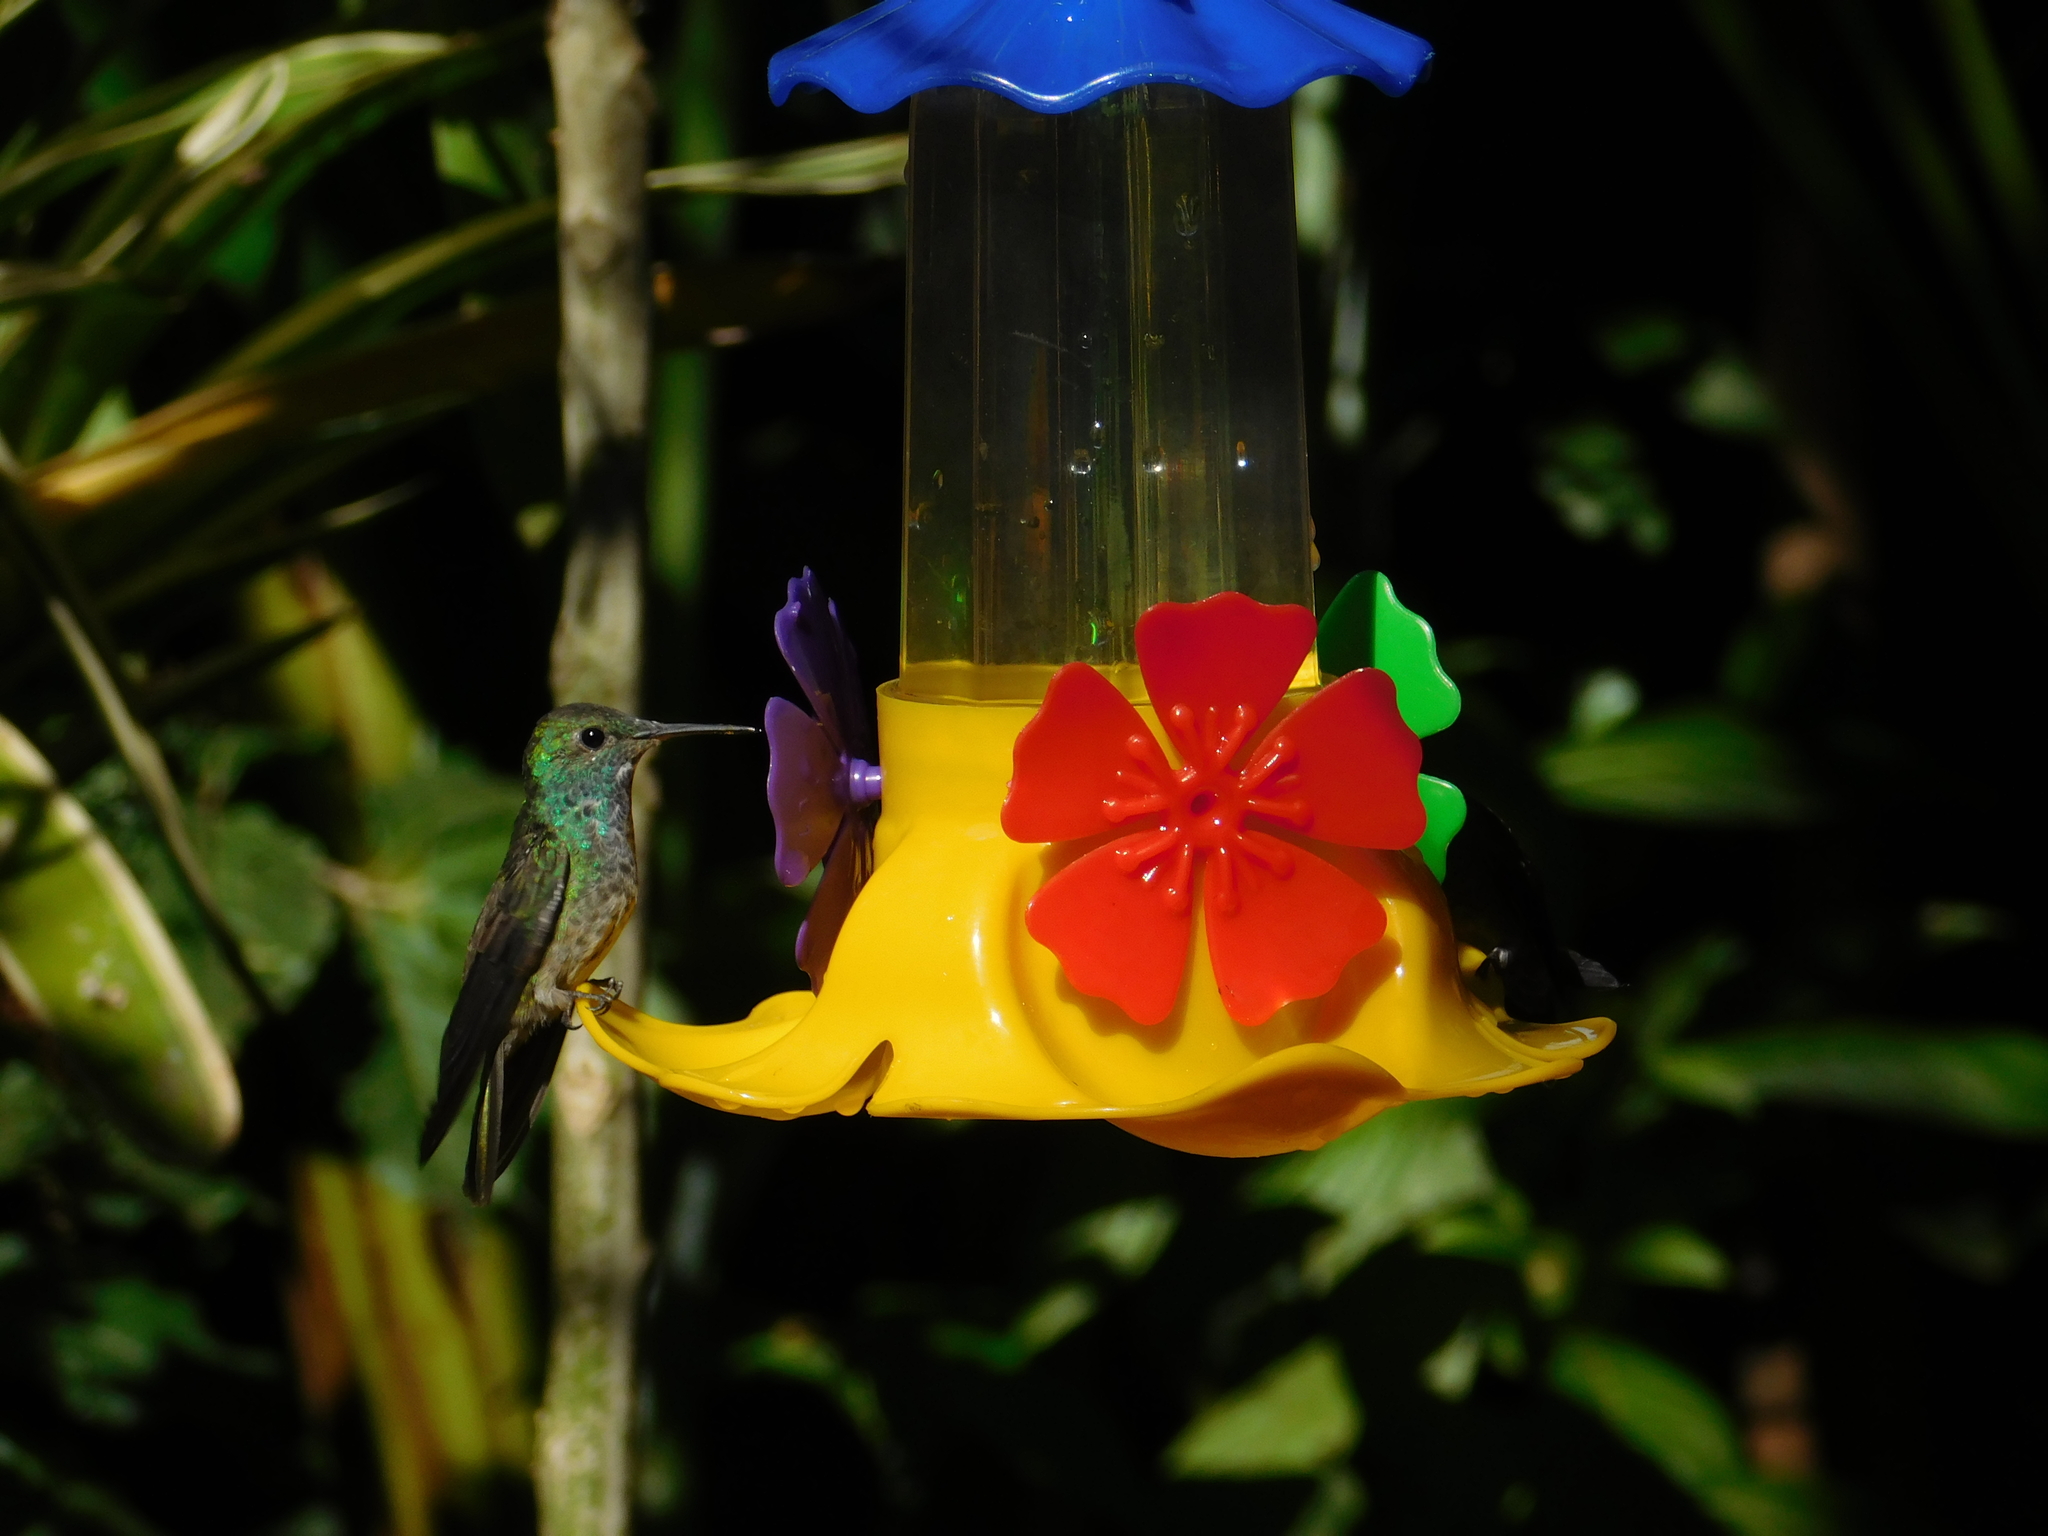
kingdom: Animalia
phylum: Chordata
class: Aves
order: Apodiformes
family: Trochilidae
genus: Chrysuronia
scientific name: Chrysuronia versicolor
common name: Versicolored emerald
